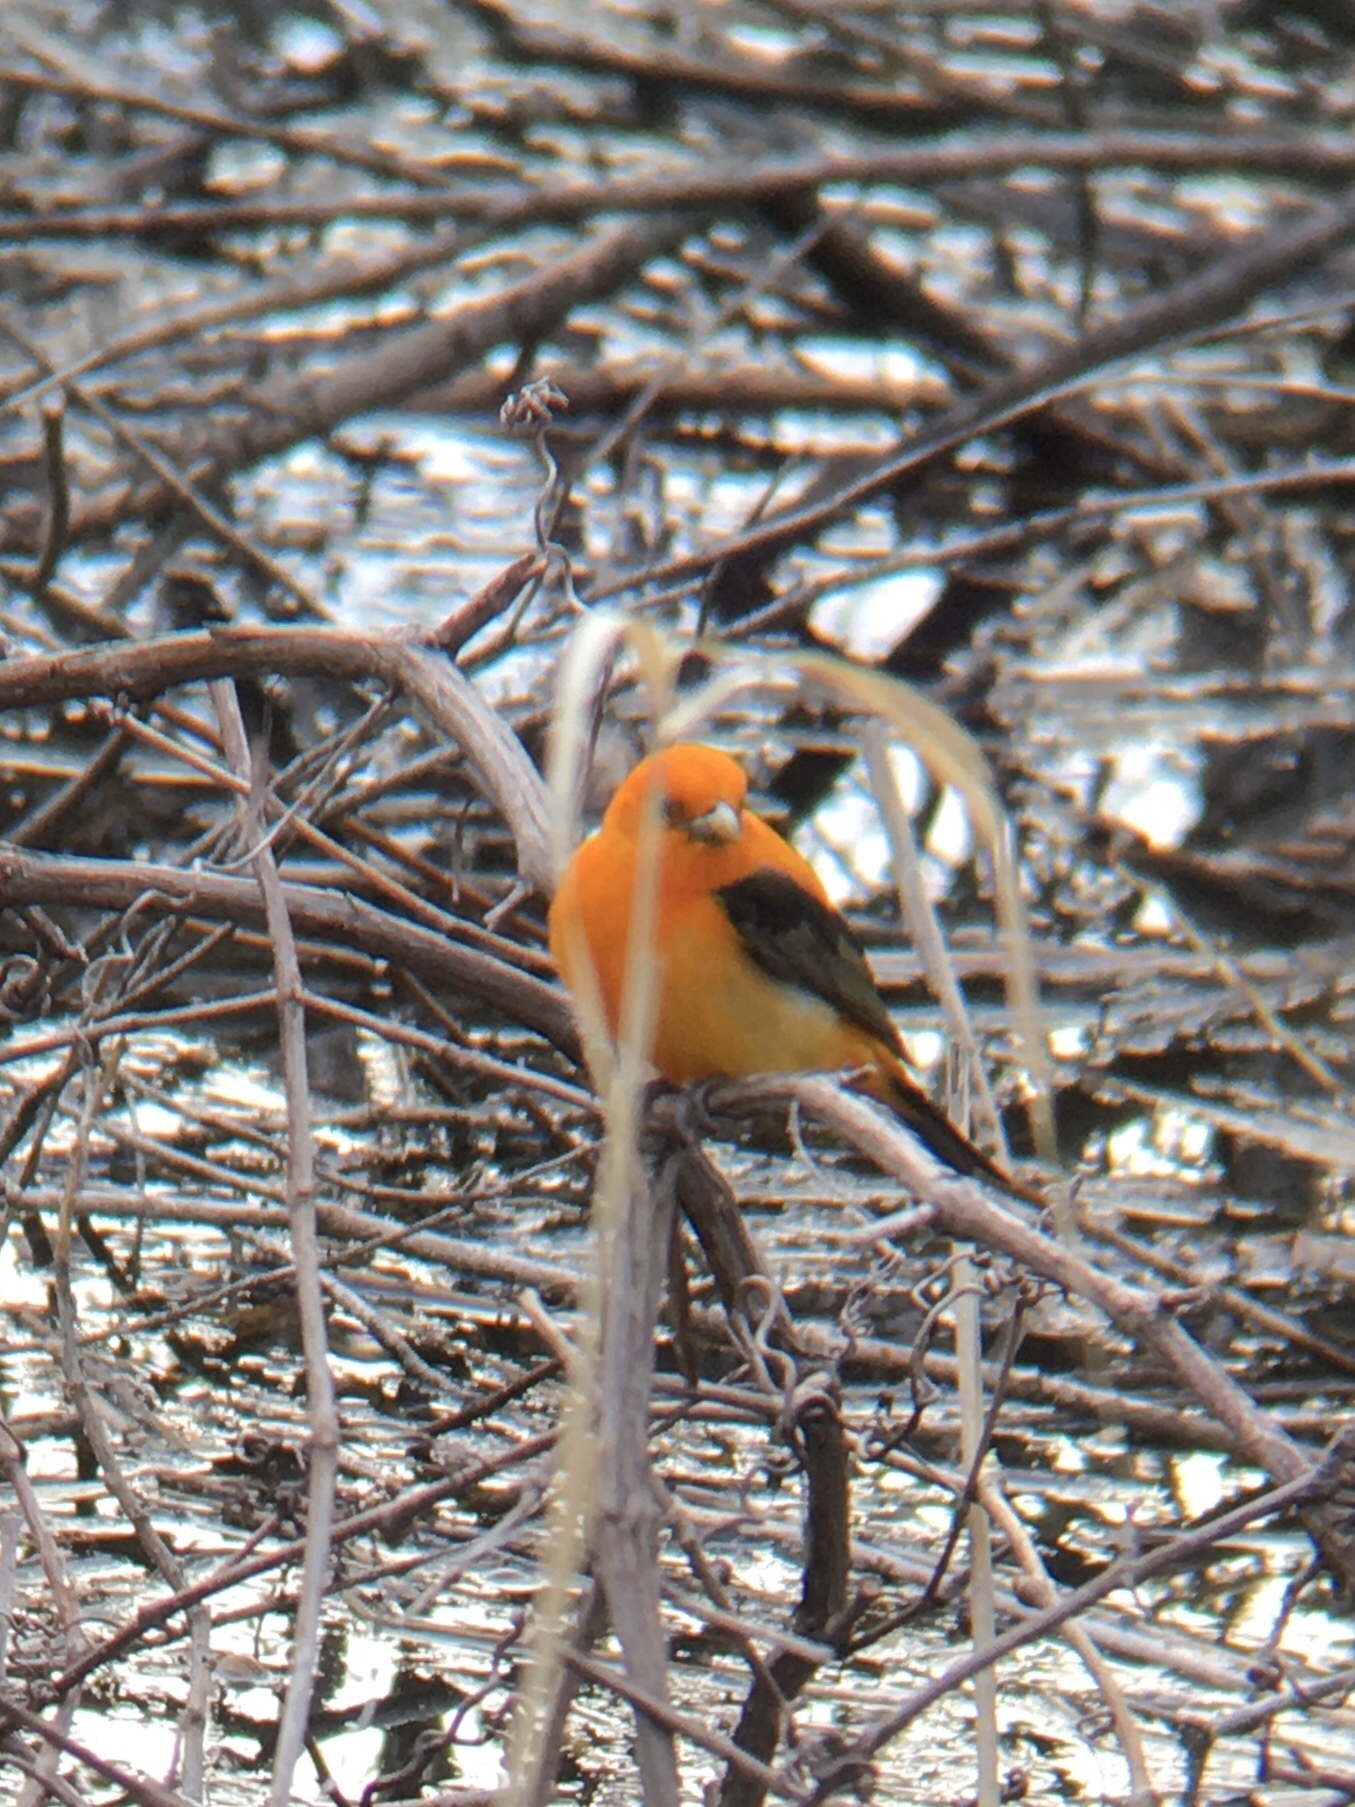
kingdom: Animalia
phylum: Chordata
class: Aves
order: Passeriformes
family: Cardinalidae
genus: Piranga
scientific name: Piranga olivacea
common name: Scarlet tanager
